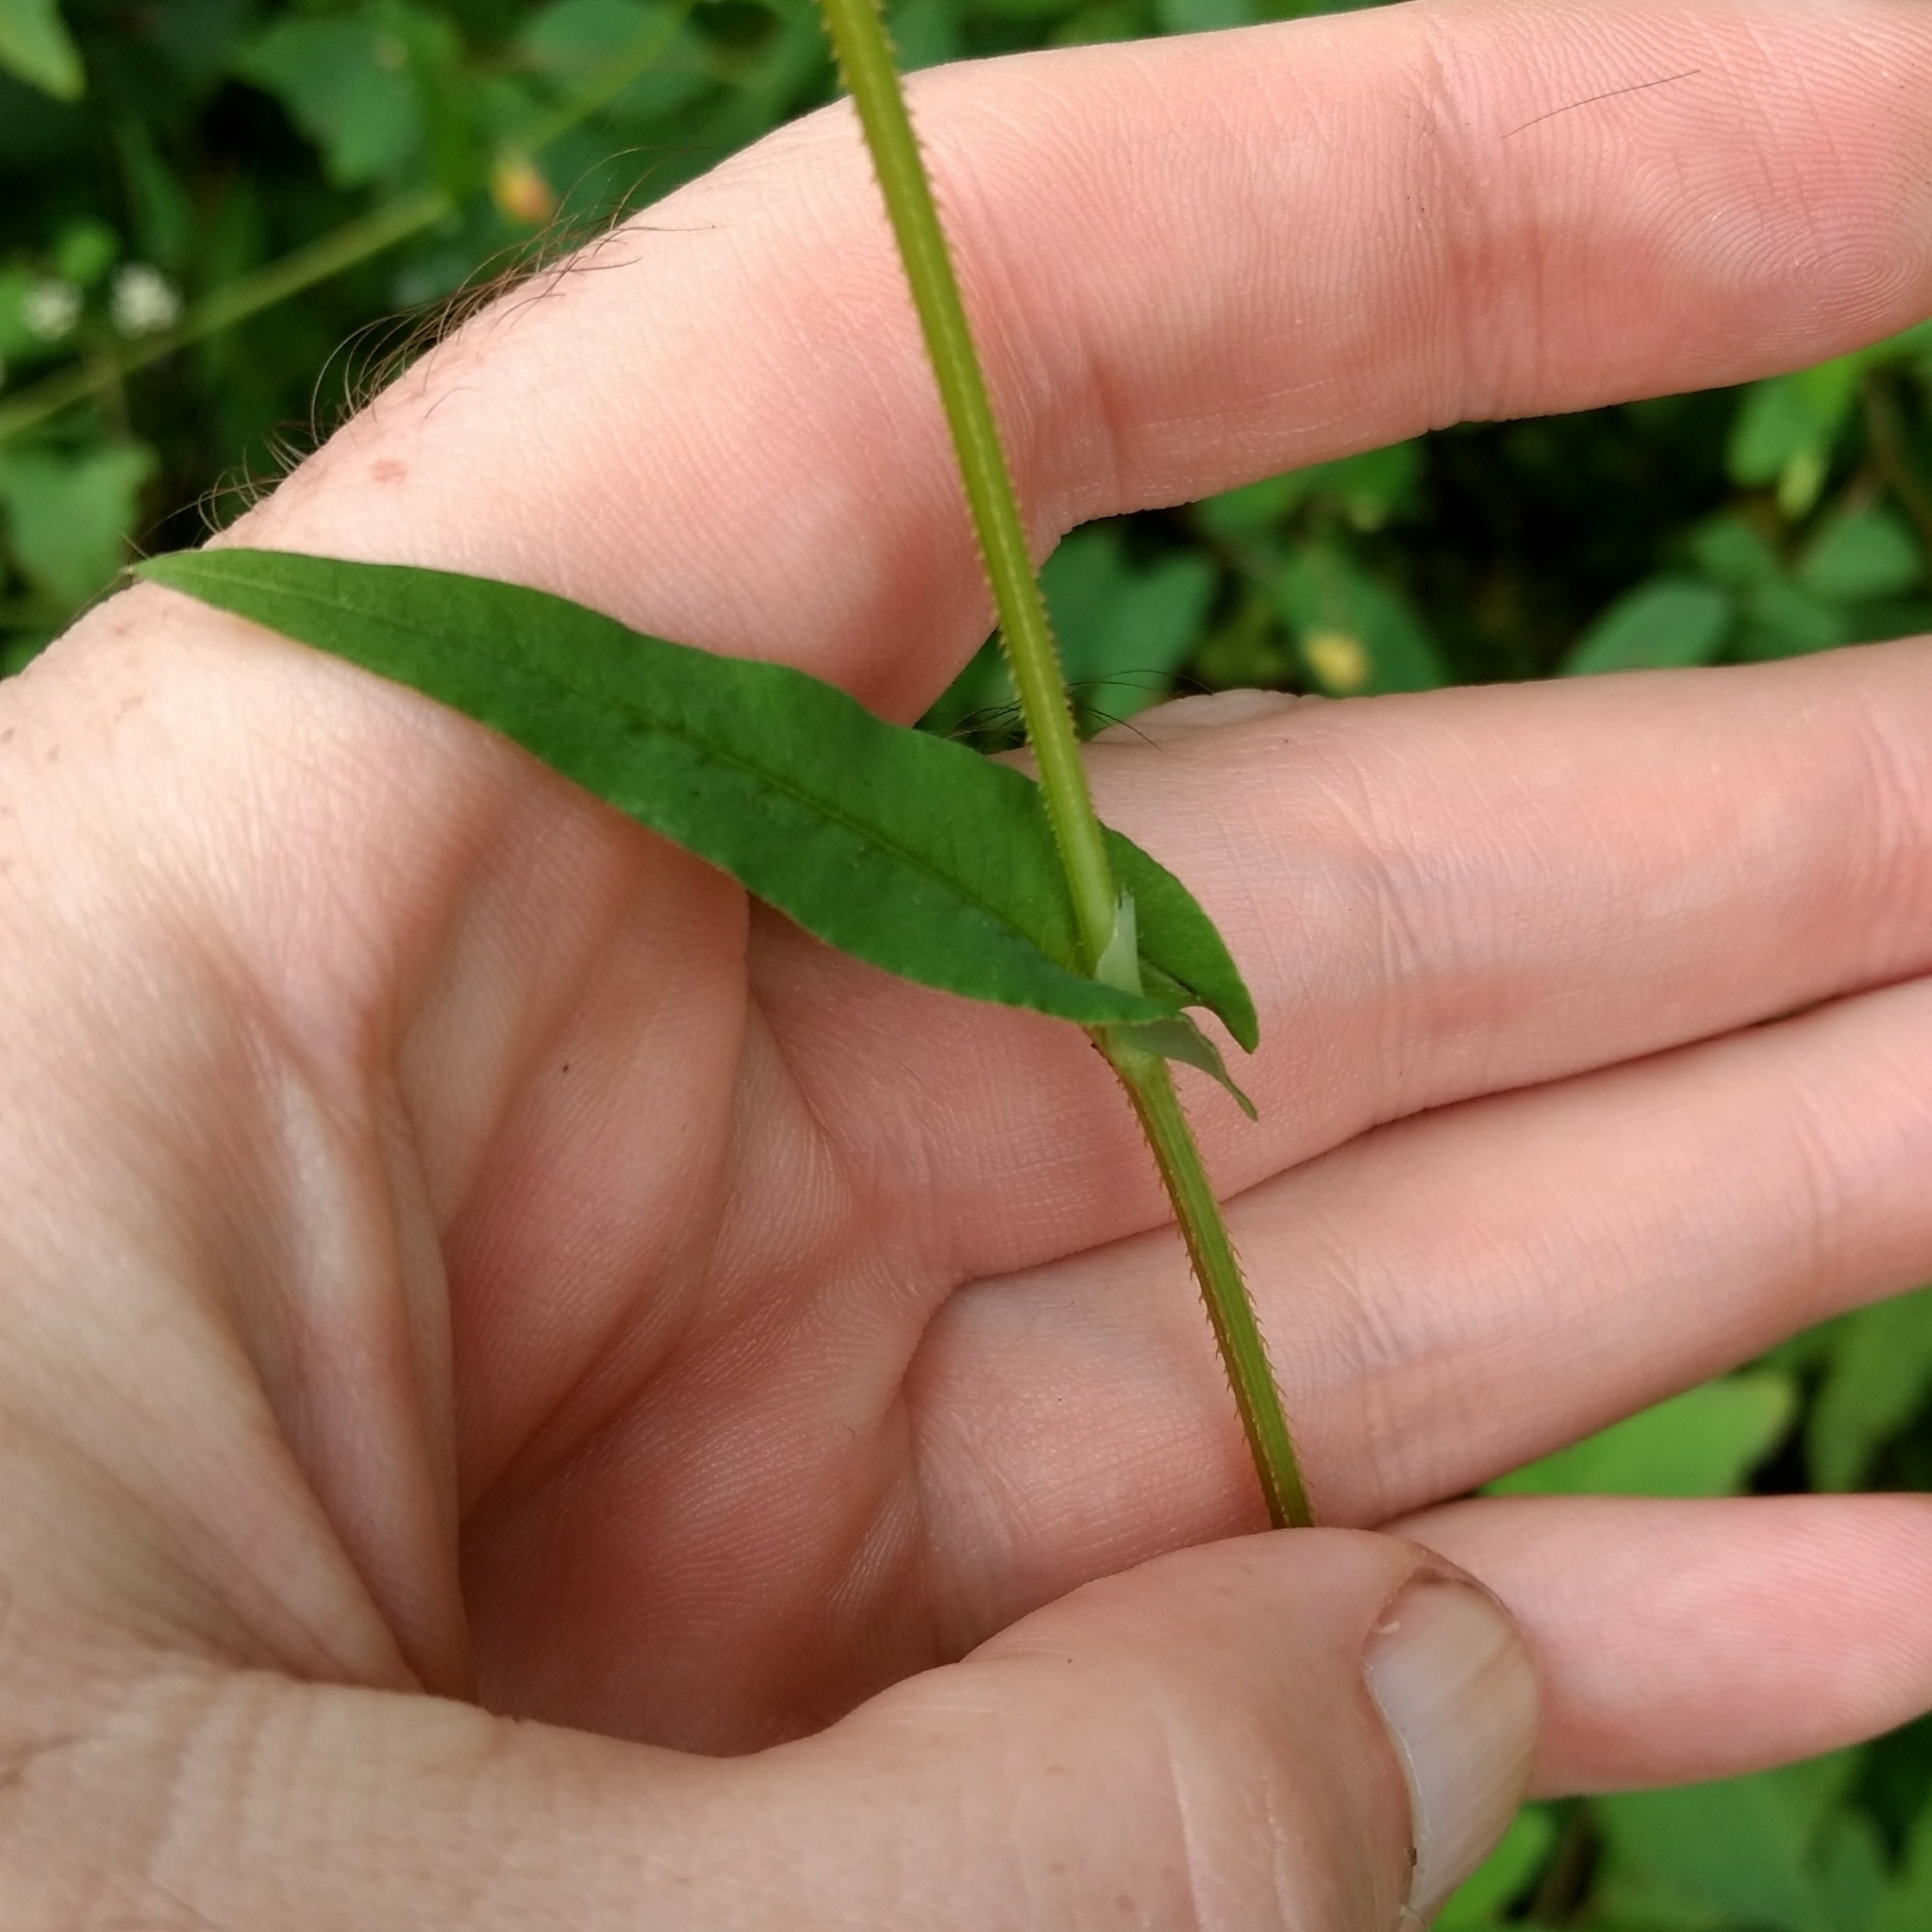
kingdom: Plantae
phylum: Tracheophyta
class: Magnoliopsida
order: Caryophyllales
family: Polygonaceae
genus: Persicaria
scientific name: Persicaria sagittata
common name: American tearthumb
